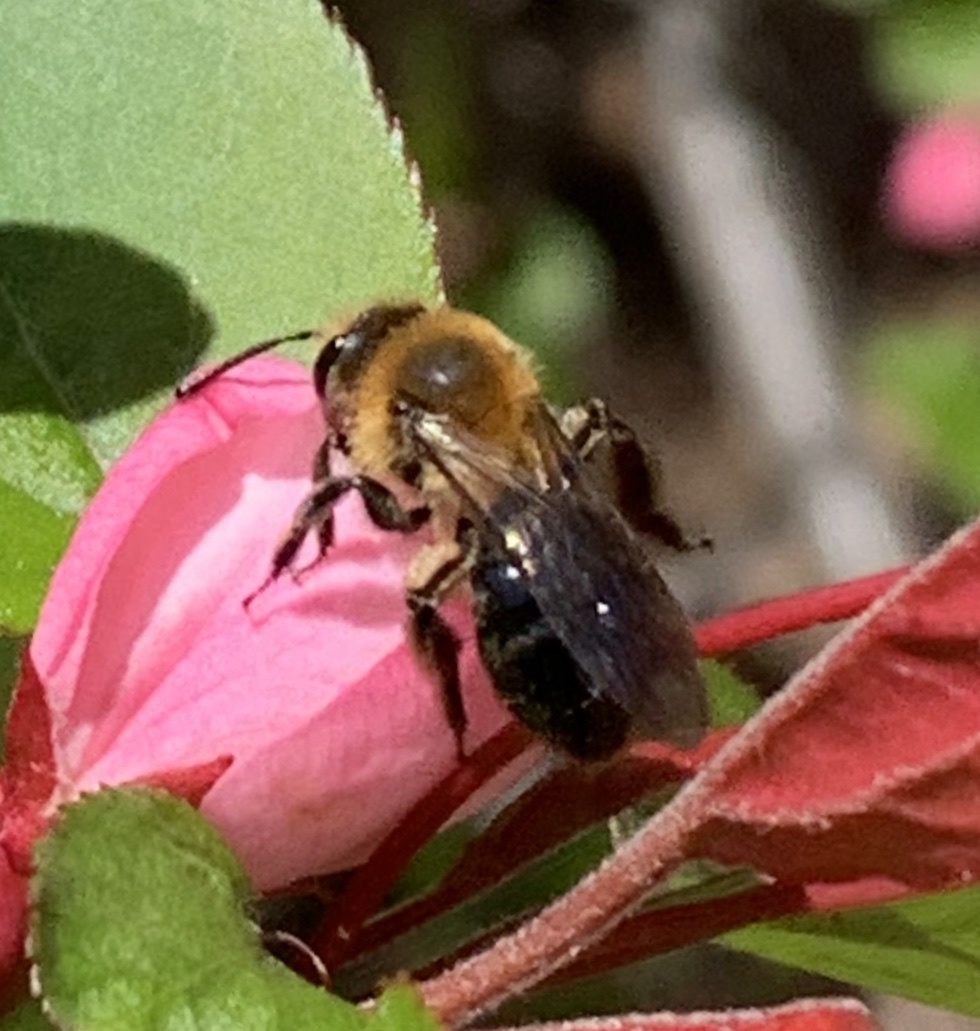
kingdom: Animalia
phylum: Arthropoda
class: Insecta
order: Hymenoptera
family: Andrenidae
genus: Andrena
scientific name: Andrena dunningi
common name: Dunning's miner
